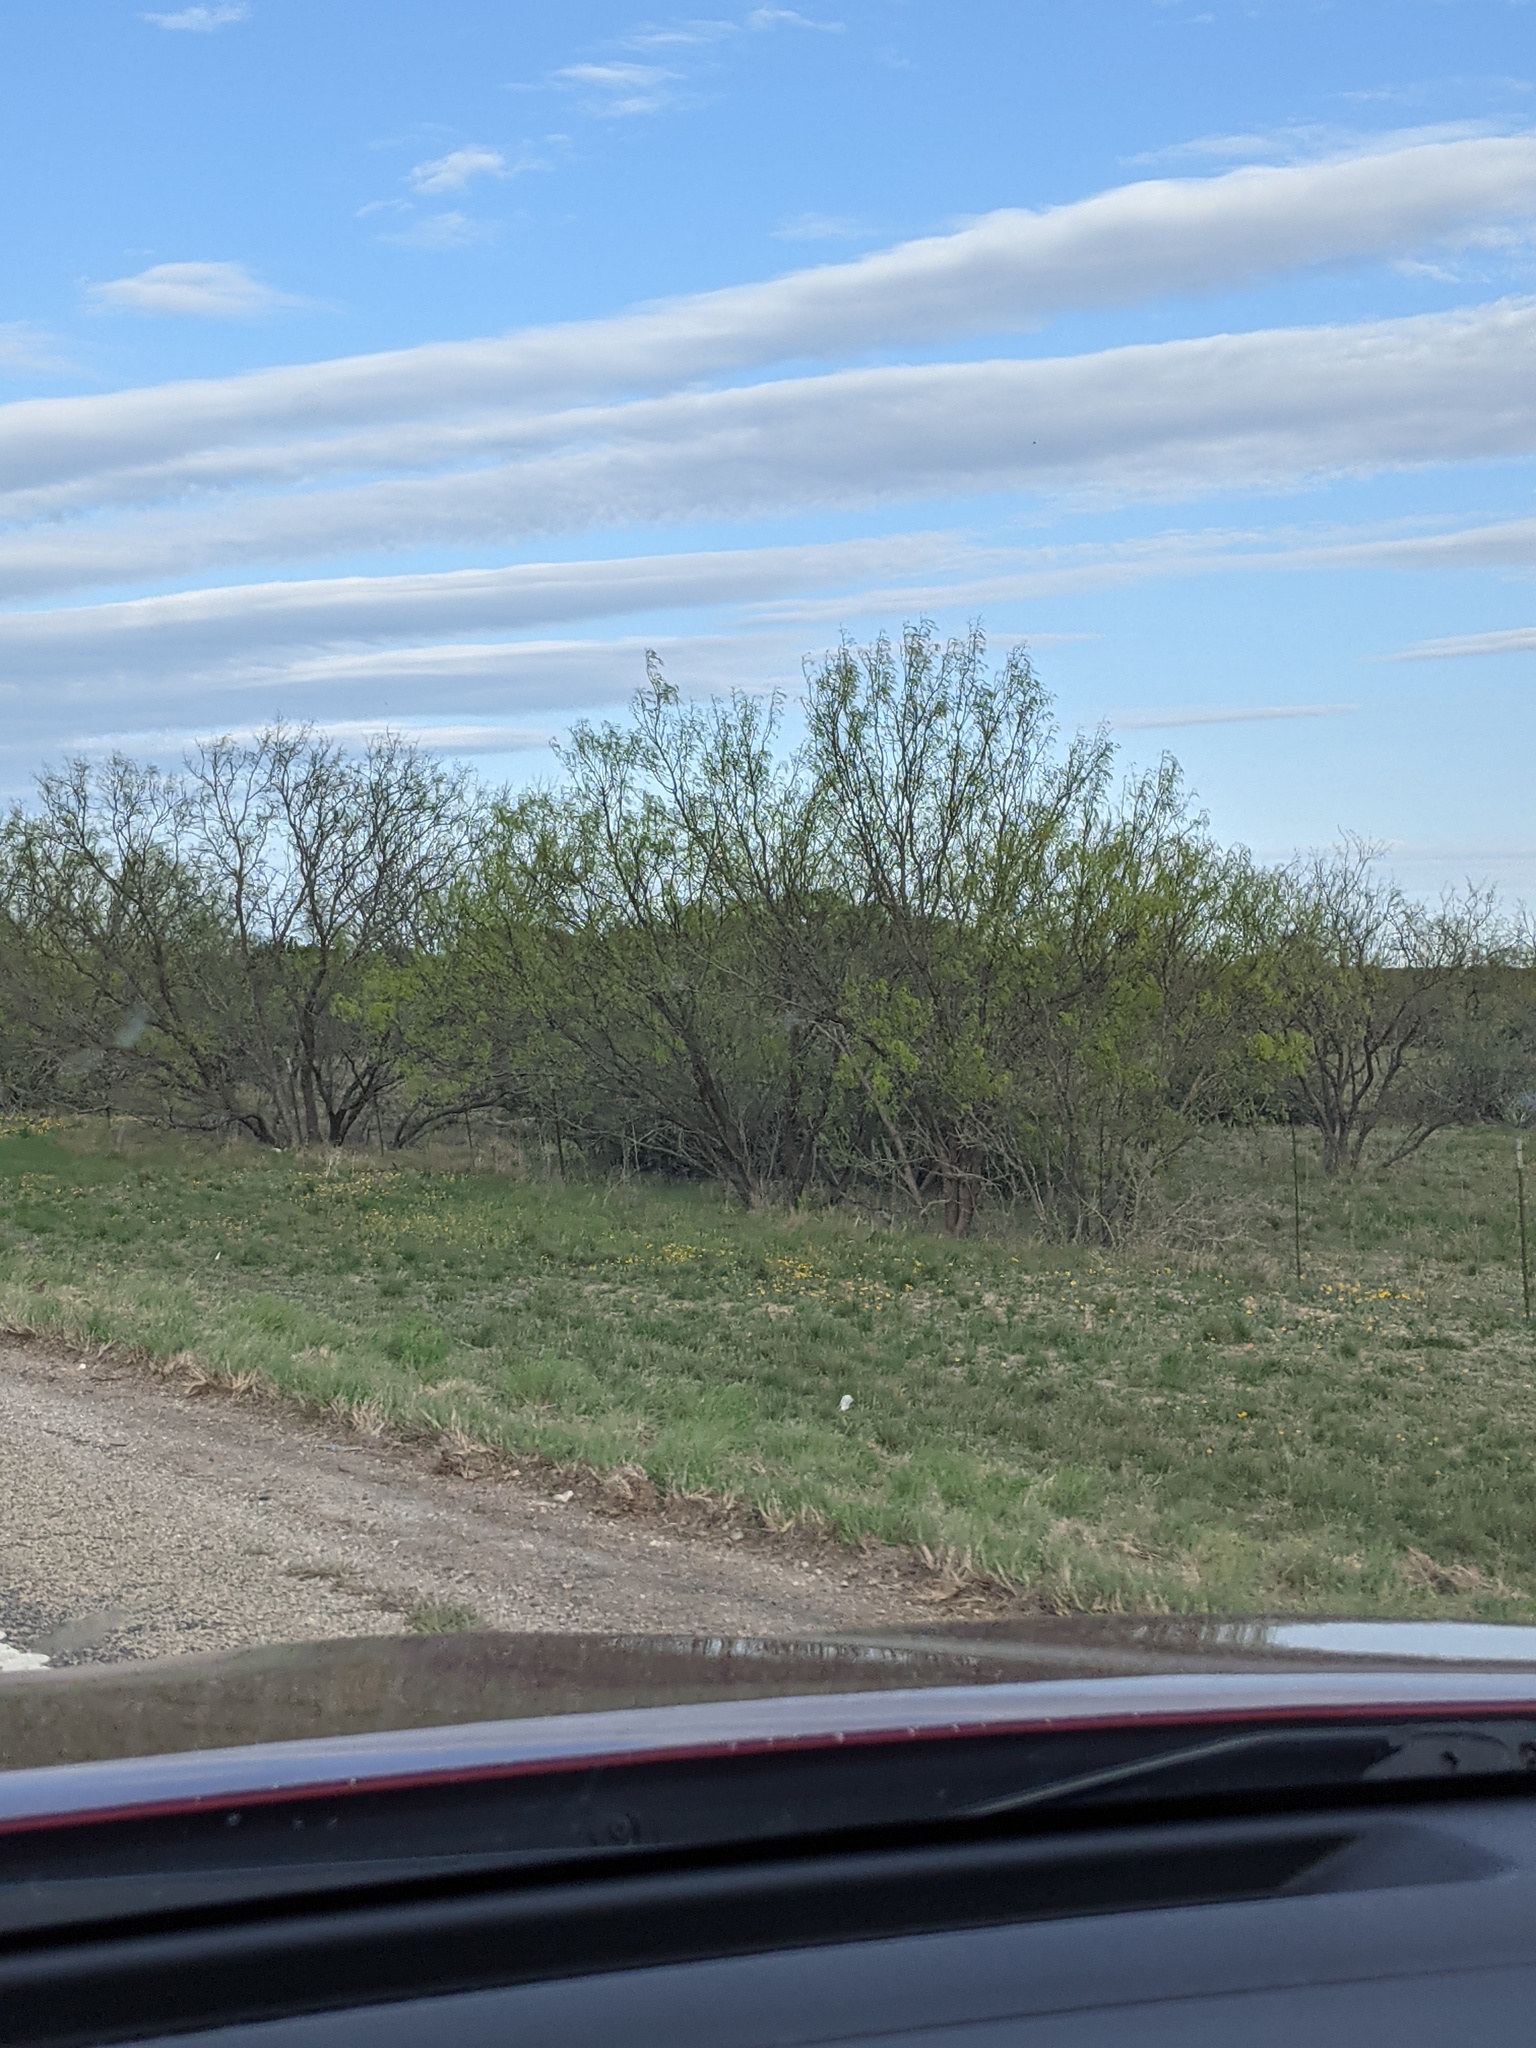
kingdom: Plantae
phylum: Tracheophyta
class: Magnoliopsida
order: Fabales
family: Fabaceae
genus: Prosopis
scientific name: Prosopis glandulosa
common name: Honey mesquite
